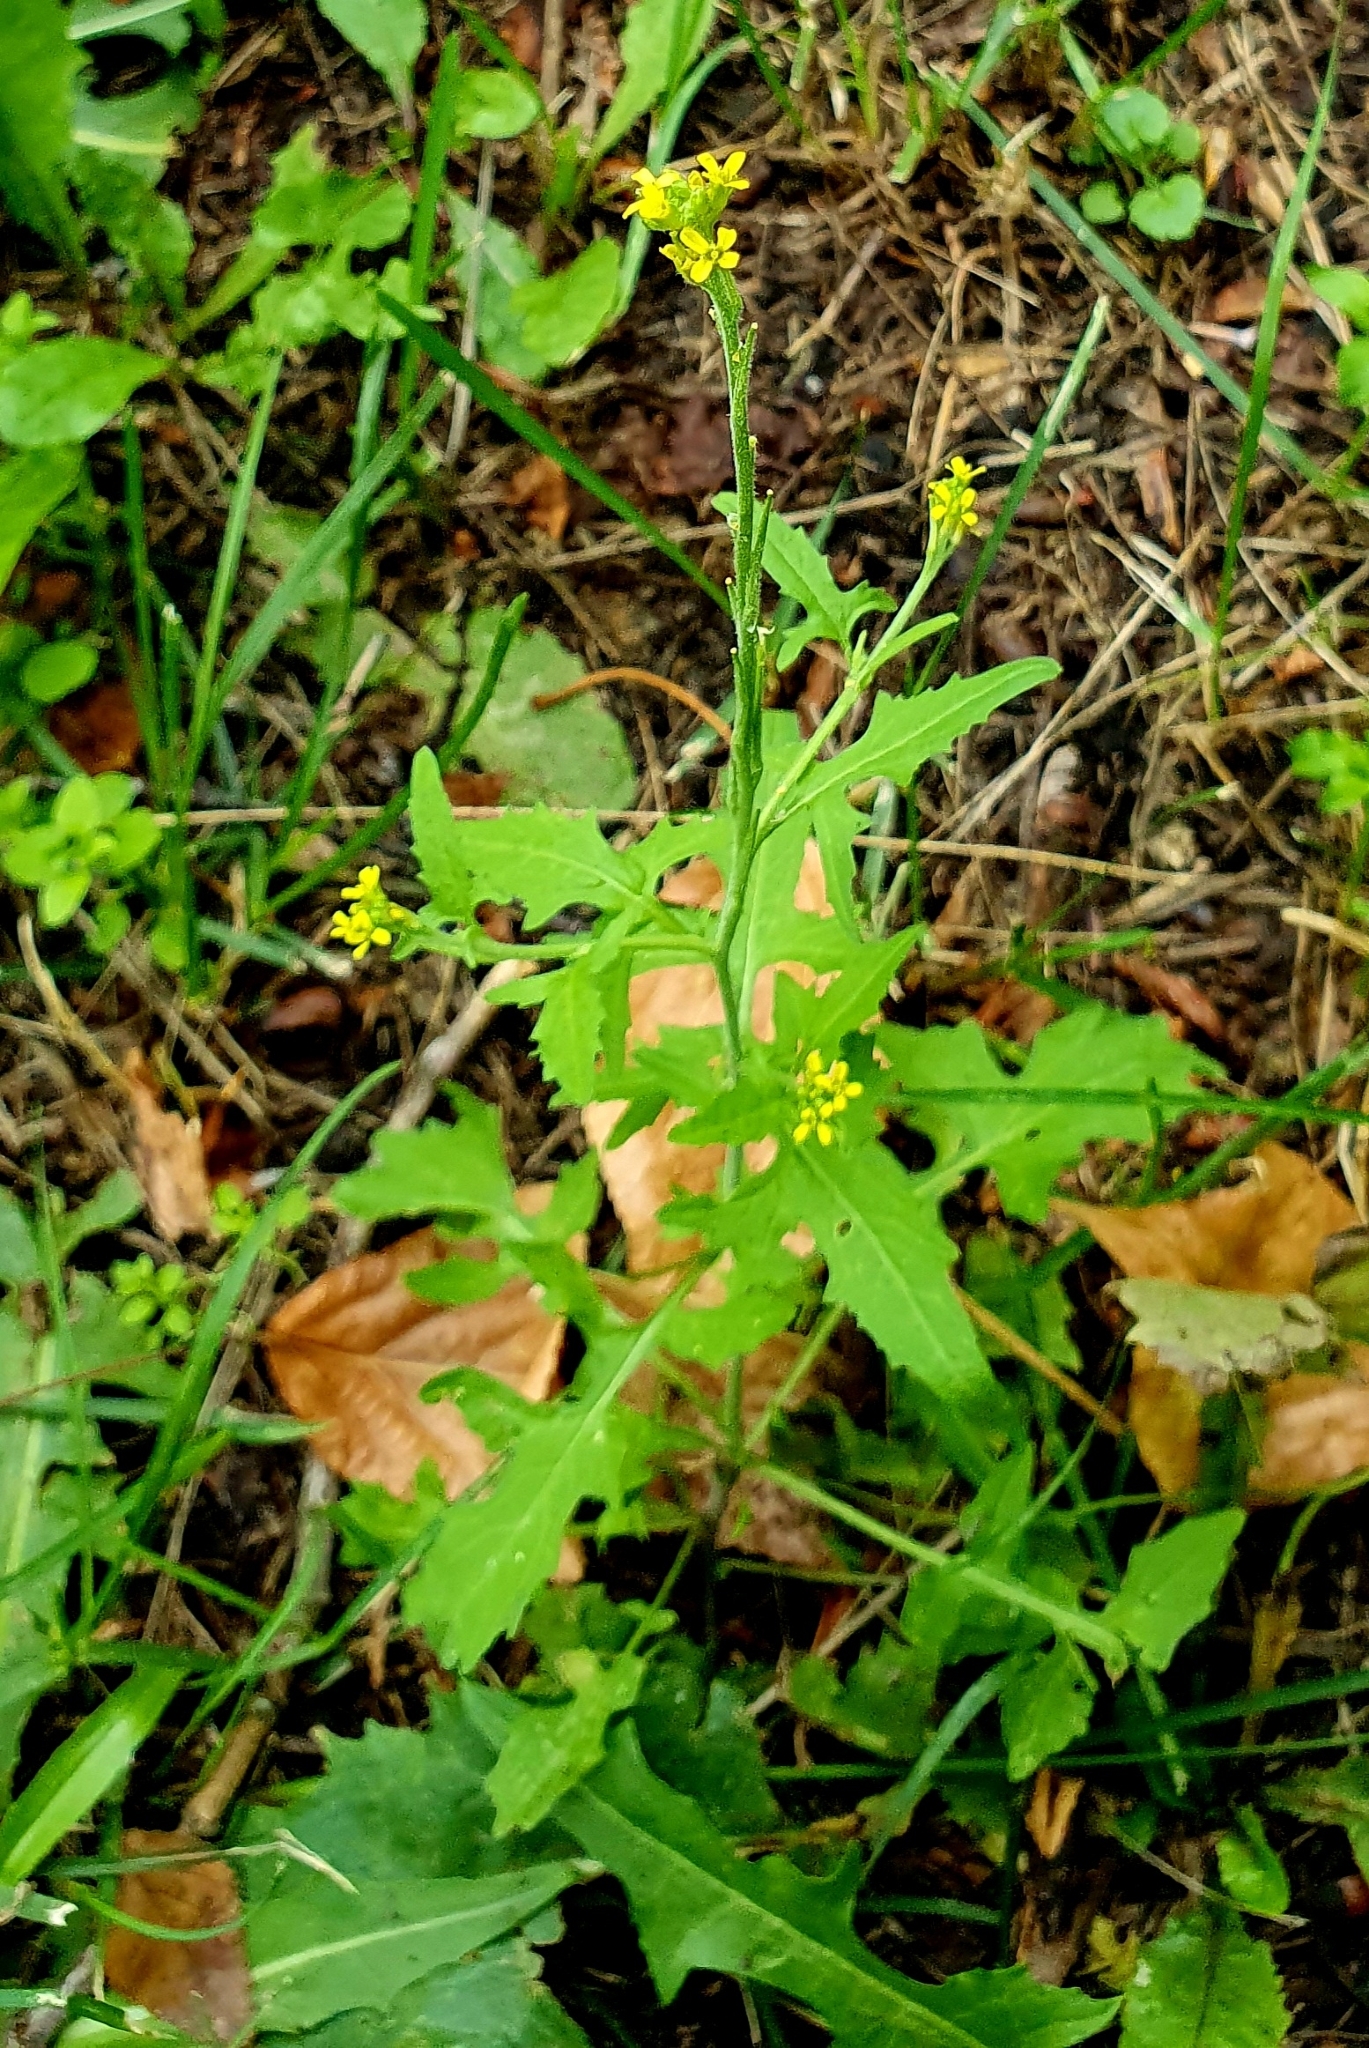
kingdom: Plantae
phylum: Tracheophyta
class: Magnoliopsida
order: Brassicales
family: Brassicaceae
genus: Sisymbrium
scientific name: Sisymbrium officinale
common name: Hedge mustard
